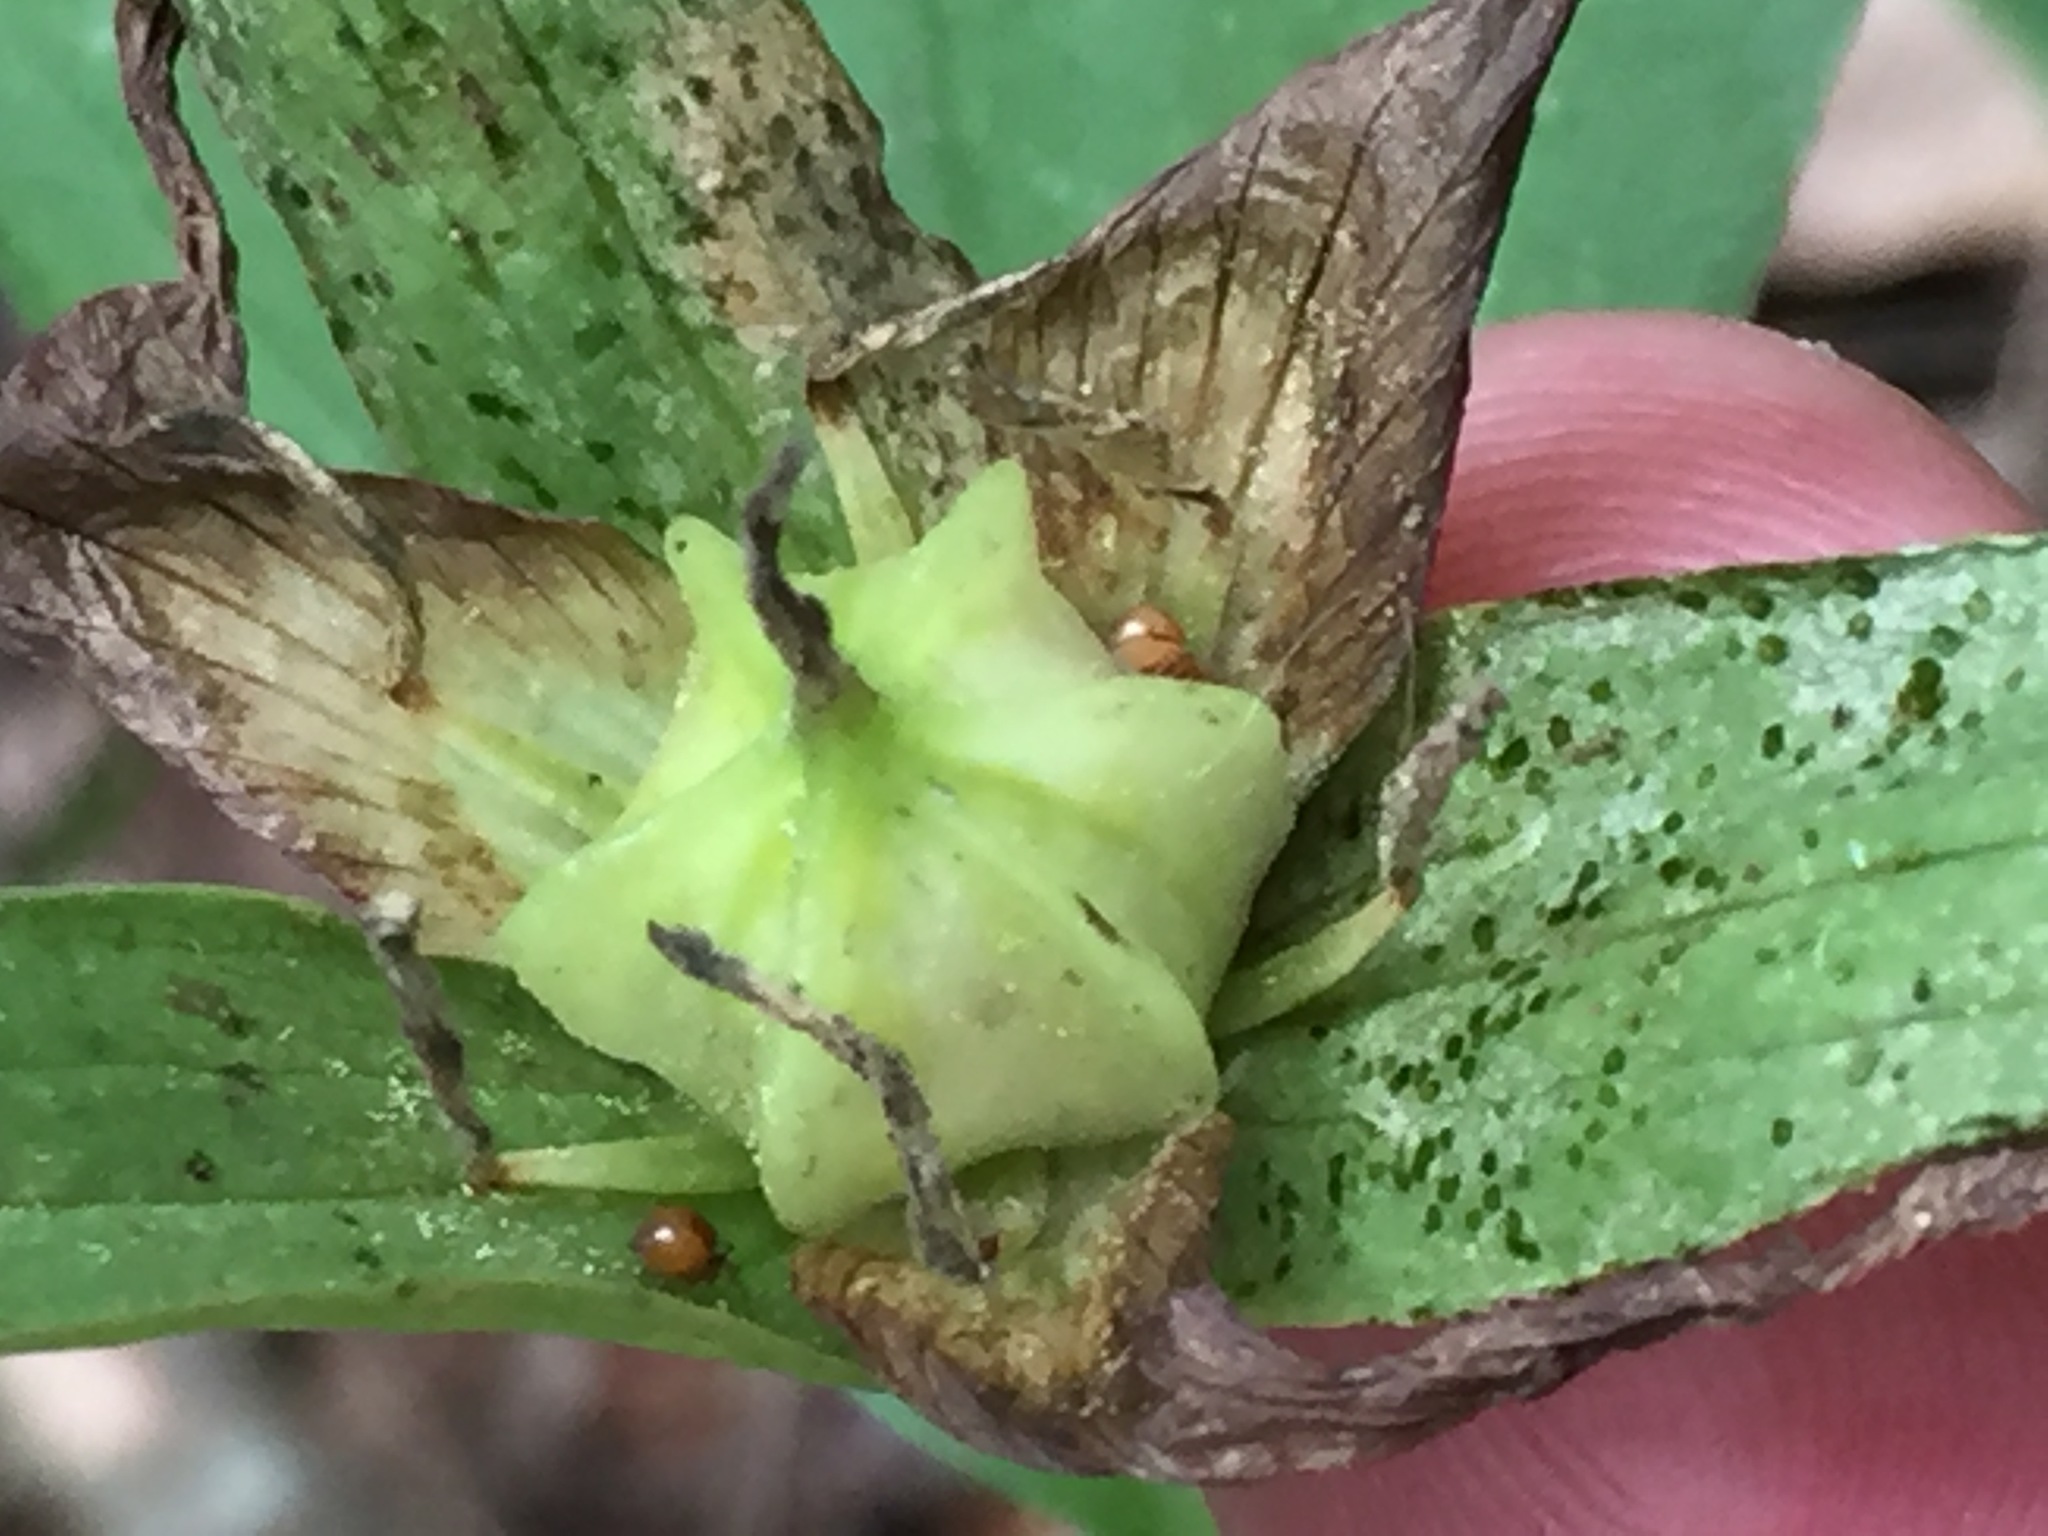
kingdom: Plantae
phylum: Tracheophyta
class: Liliopsida
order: Liliales
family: Melanthiaceae
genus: Trillium
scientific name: Trillium grandiflorum
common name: Great white trillium
